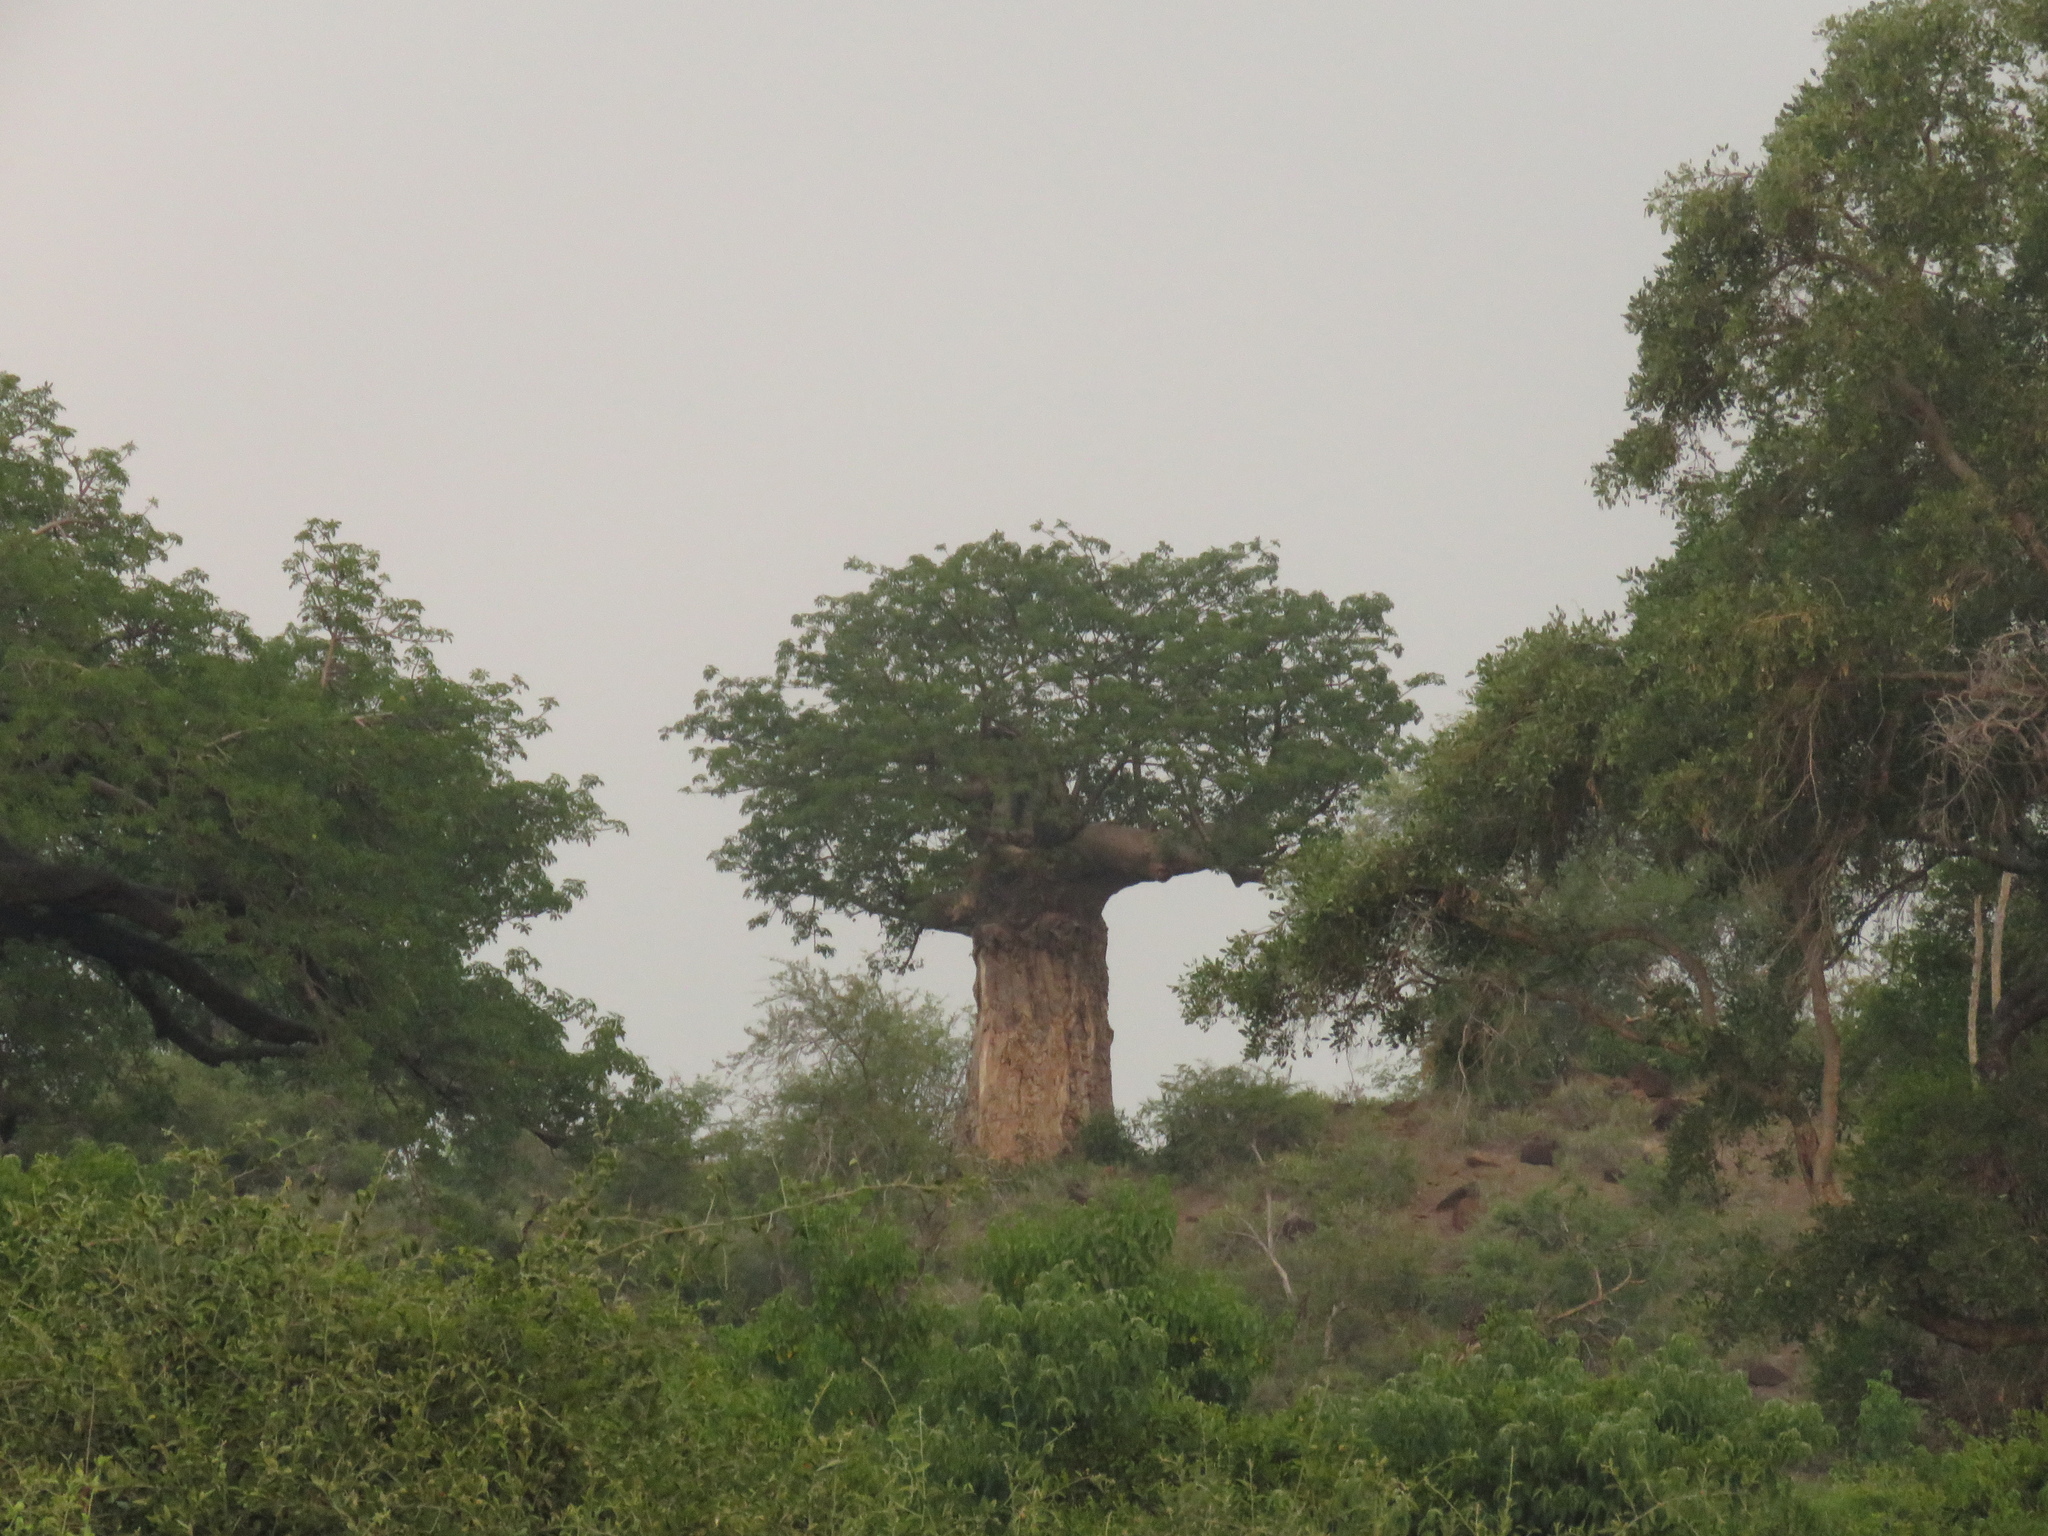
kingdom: Plantae
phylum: Tracheophyta
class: Magnoliopsida
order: Malvales
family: Malvaceae
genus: Adansonia
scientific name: Adansonia digitata
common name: Dead-rat-tree
